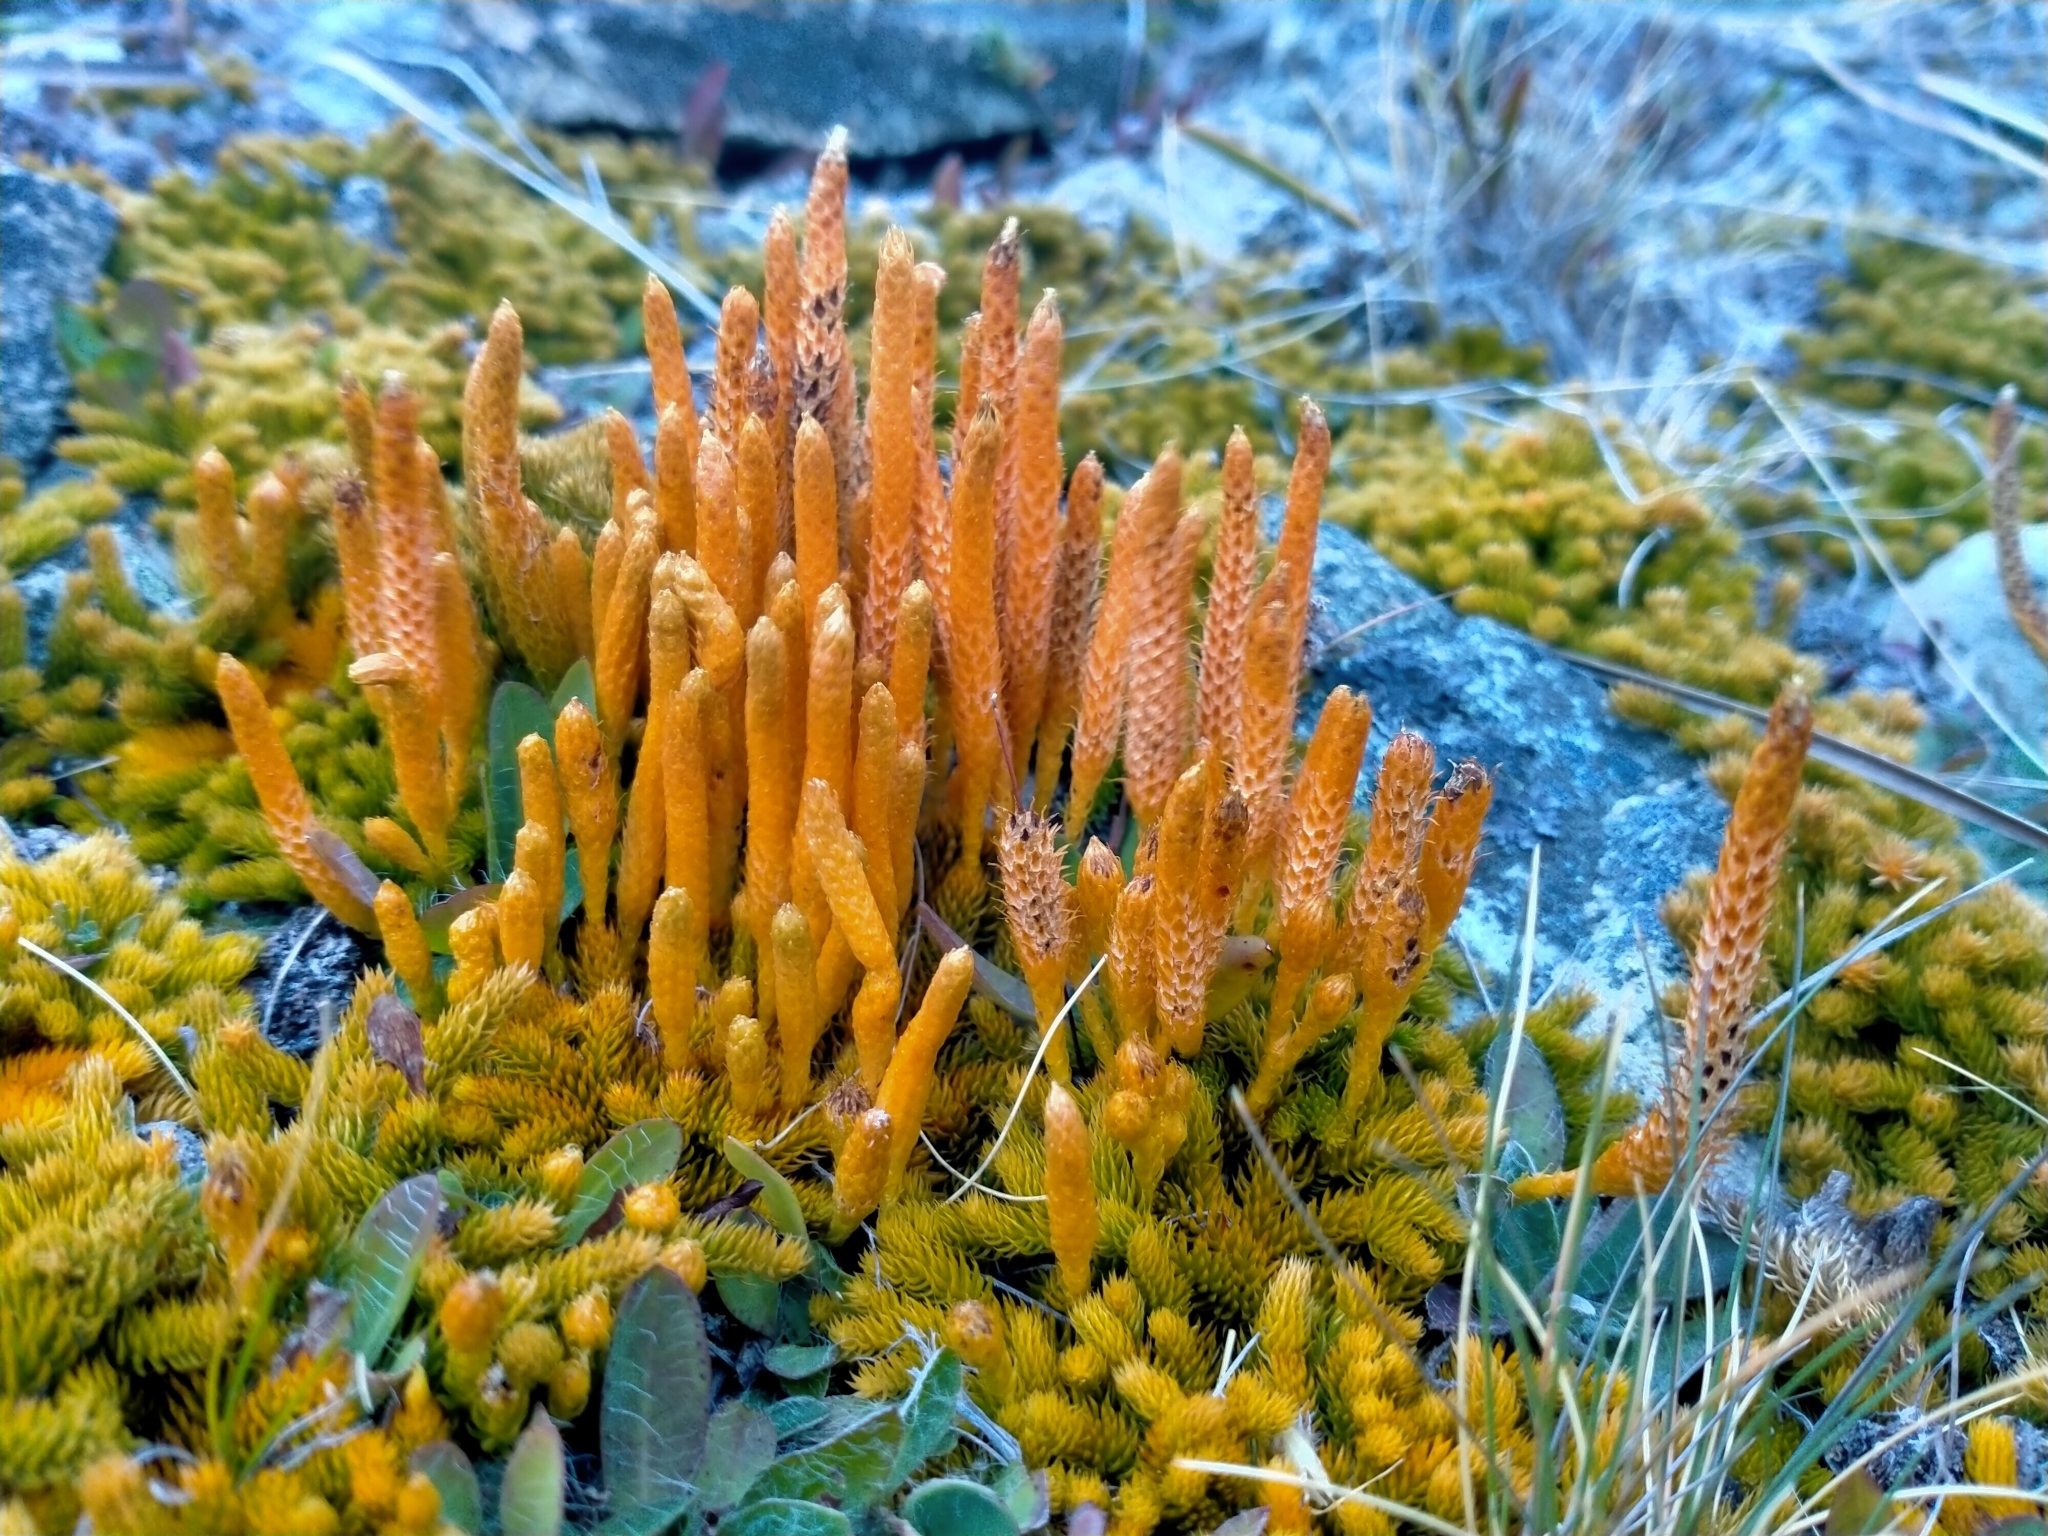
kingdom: Plantae
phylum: Tracheophyta
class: Lycopodiopsida
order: Lycopodiales
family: Lycopodiaceae
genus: Austrolycopodium
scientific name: Austrolycopodium fastigiatum
